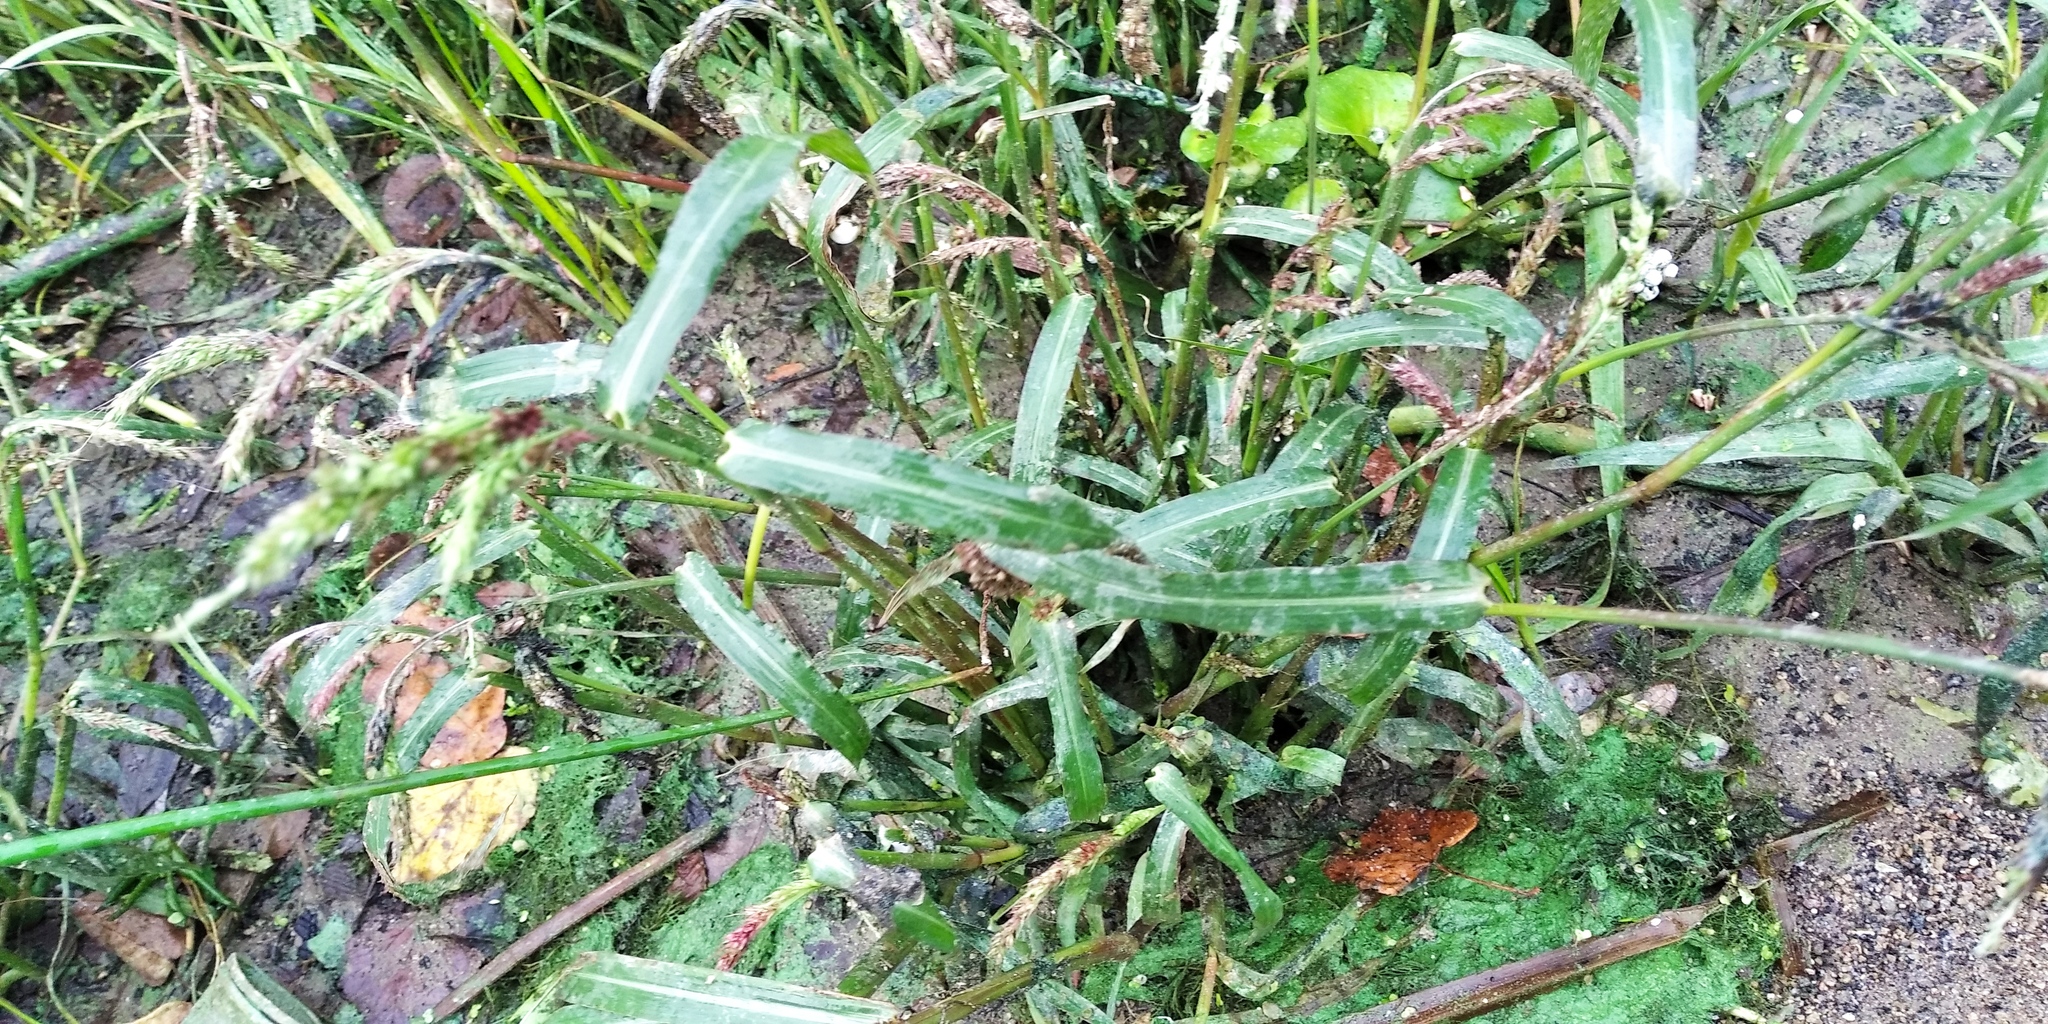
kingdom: Plantae
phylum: Tracheophyta
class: Liliopsida
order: Poales
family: Poaceae
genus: Echinochloa
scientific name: Echinochloa crus-galli
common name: Cockspur
